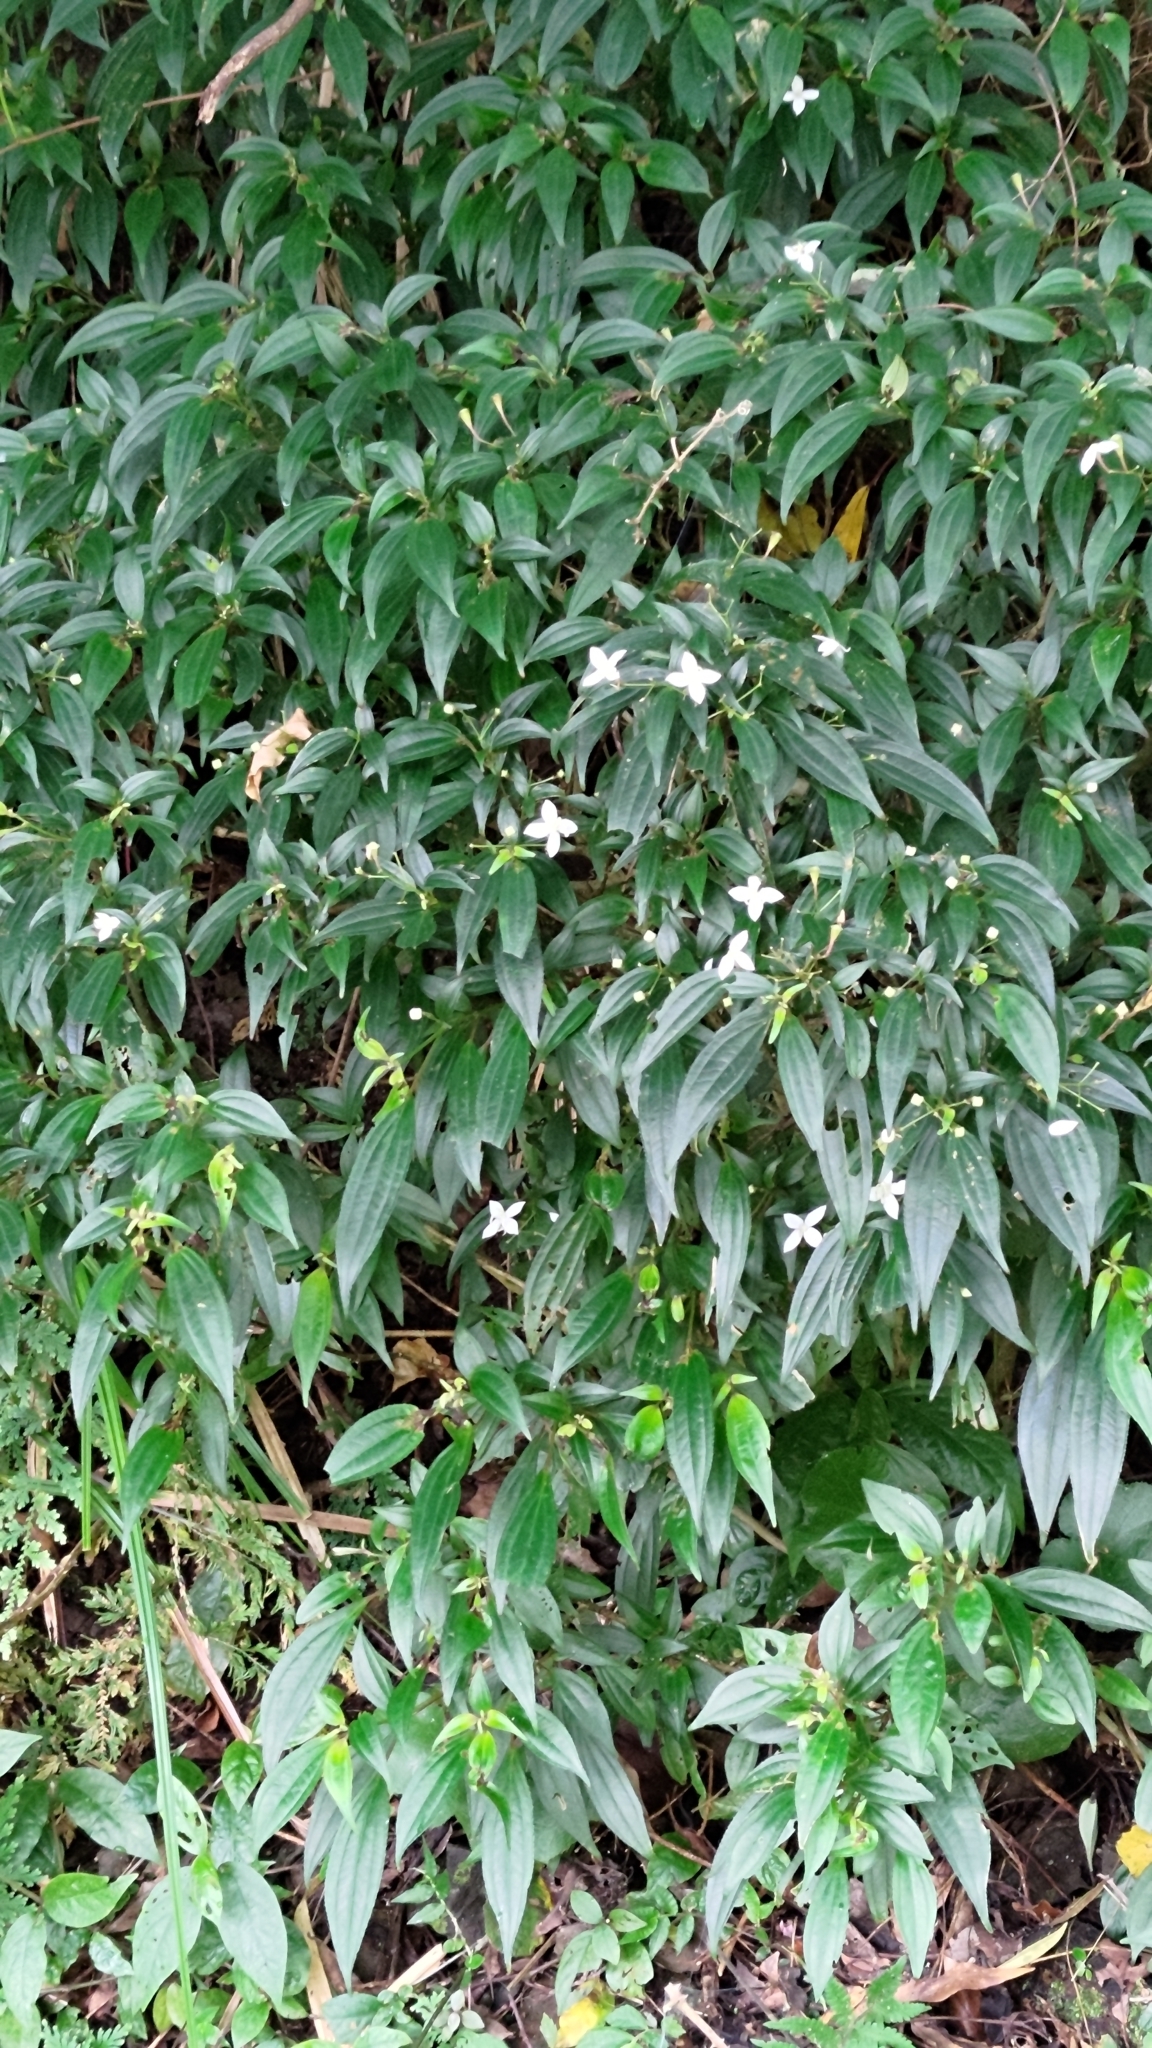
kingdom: Plantae
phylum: Tracheophyta
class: Magnoliopsida
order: Myrtales
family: Melastomataceae
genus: Bredia
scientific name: Bredia oldhamii
